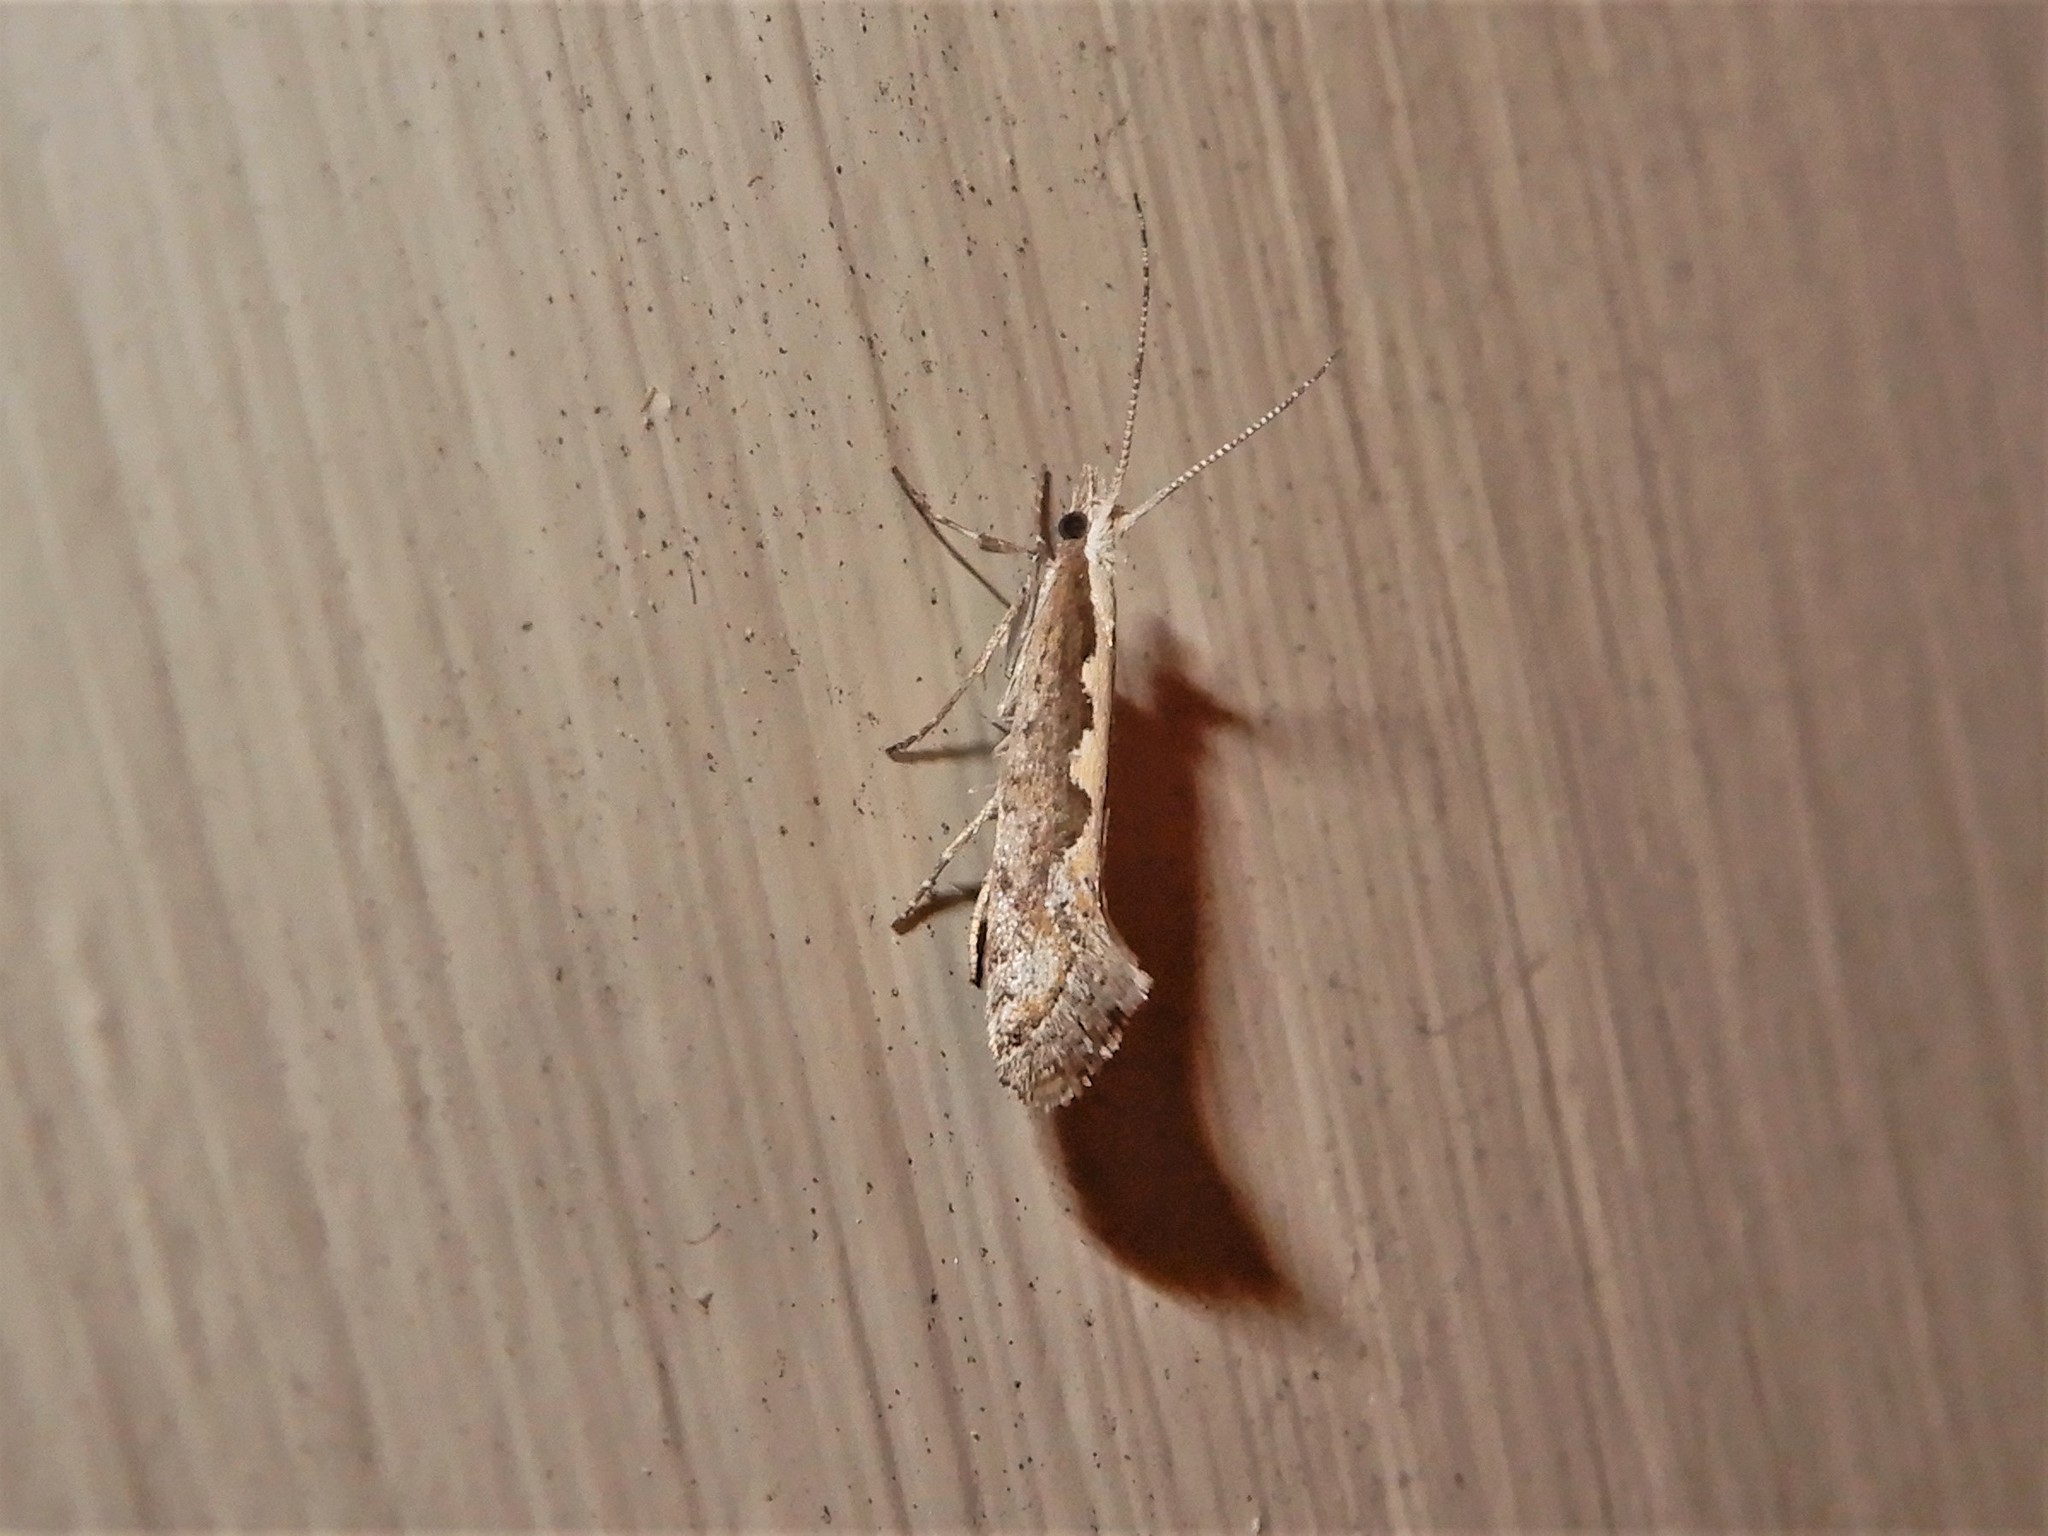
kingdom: Animalia
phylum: Arthropoda
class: Insecta
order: Lepidoptera
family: Plutellidae
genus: Plutella
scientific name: Plutella xylostella
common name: Diamond-back moth
